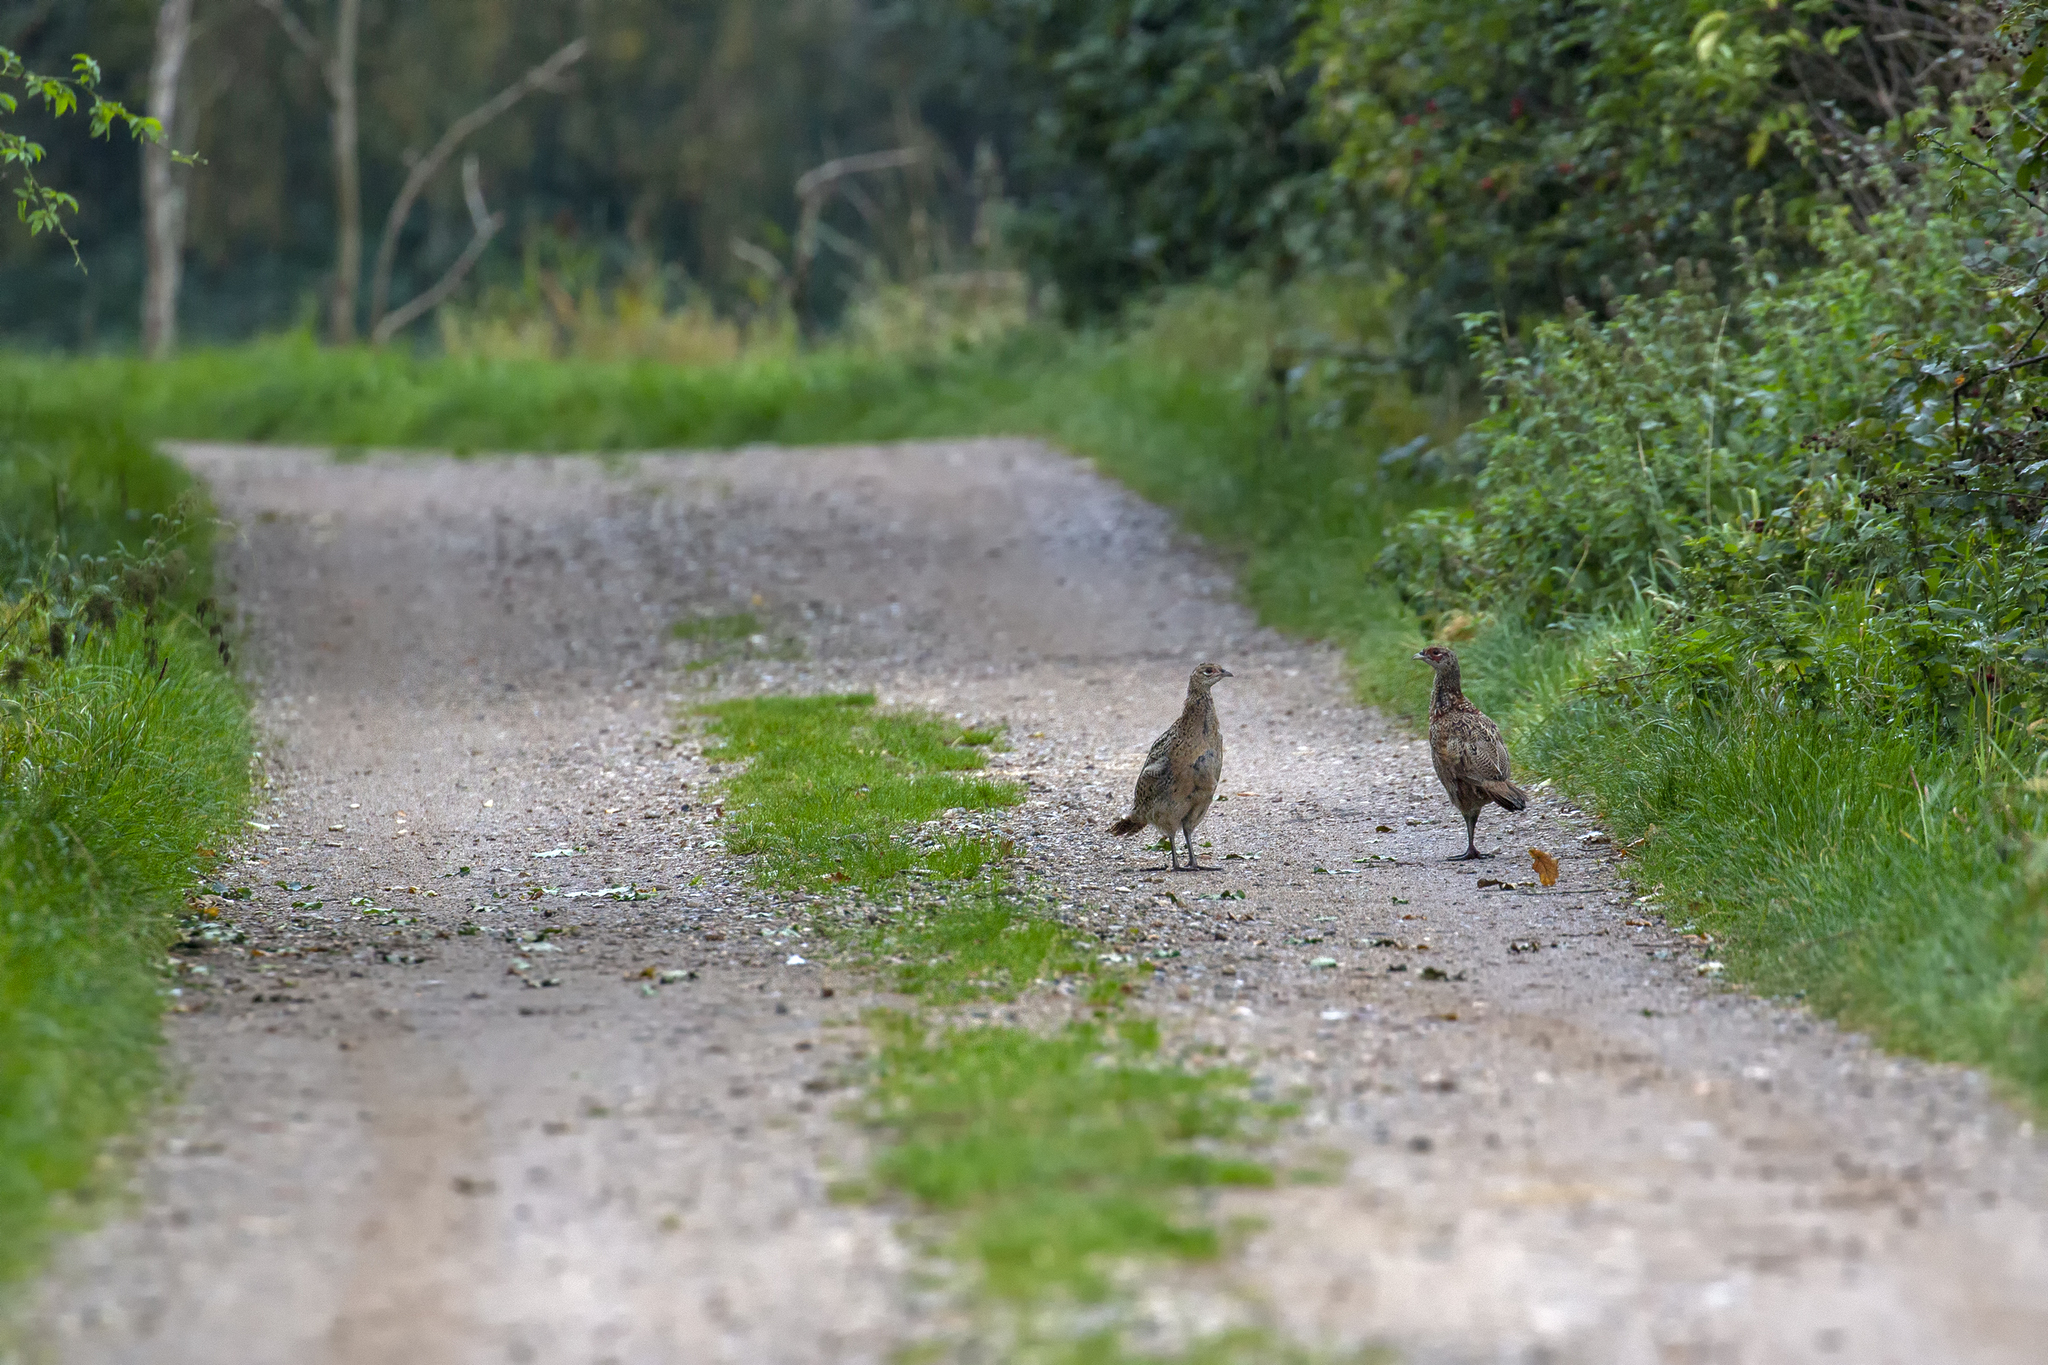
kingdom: Animalia
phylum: Chordata
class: Aves
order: Galliformes
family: Phasianidae
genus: Phasianus
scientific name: Phasianus colchicus
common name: Common pheasant
